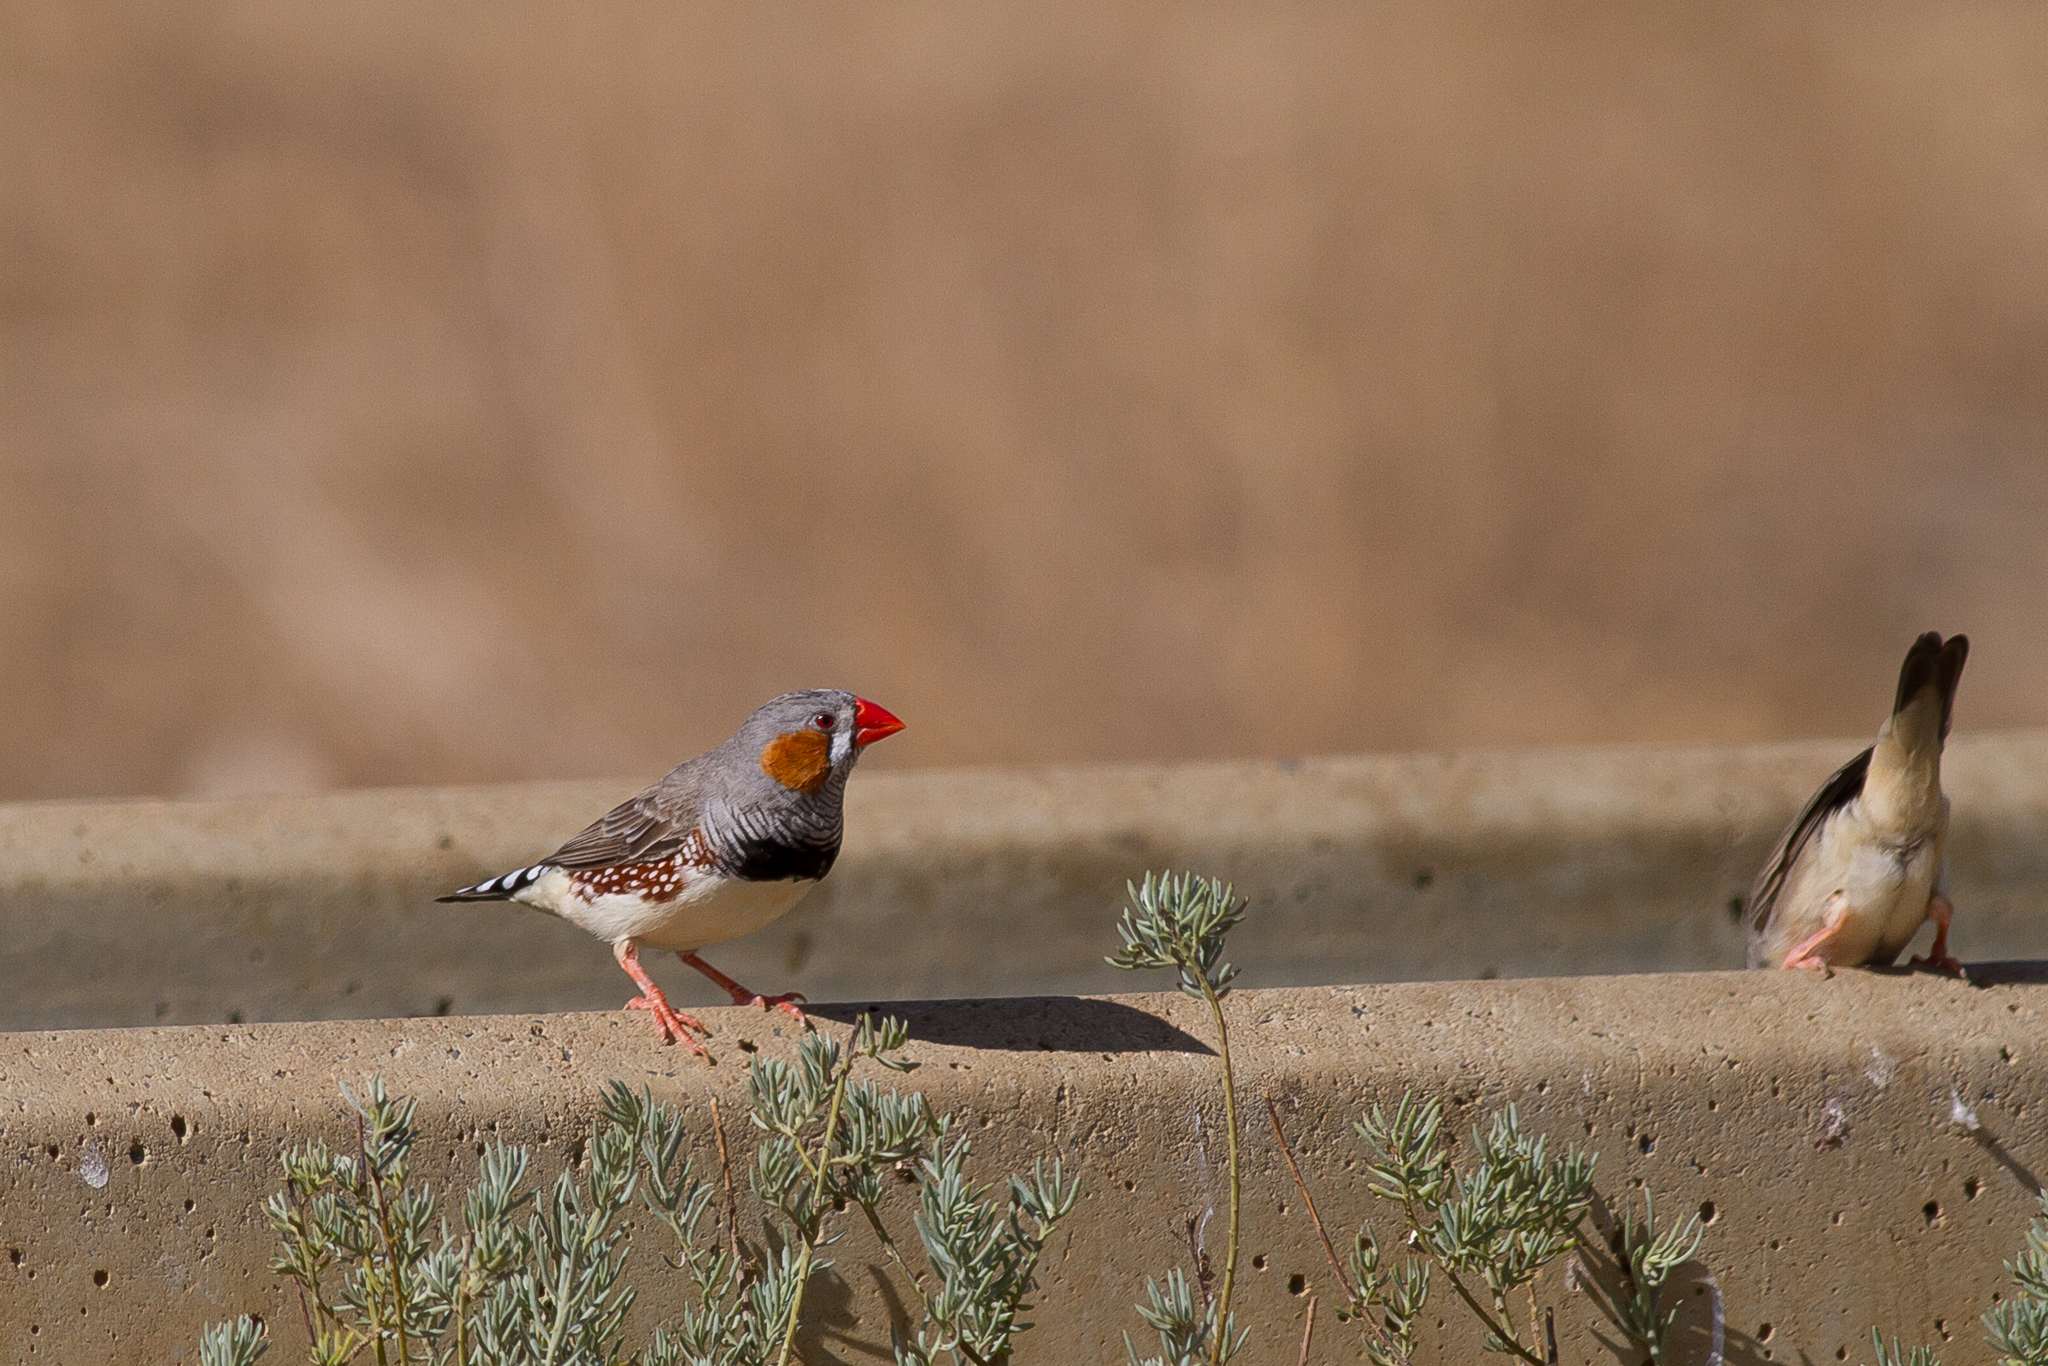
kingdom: Animalia
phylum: Chordata
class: Aves
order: Passeriformes
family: Estrildidae
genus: Taeniopygia
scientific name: Taeniopygia guttata
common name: Zebra finch
